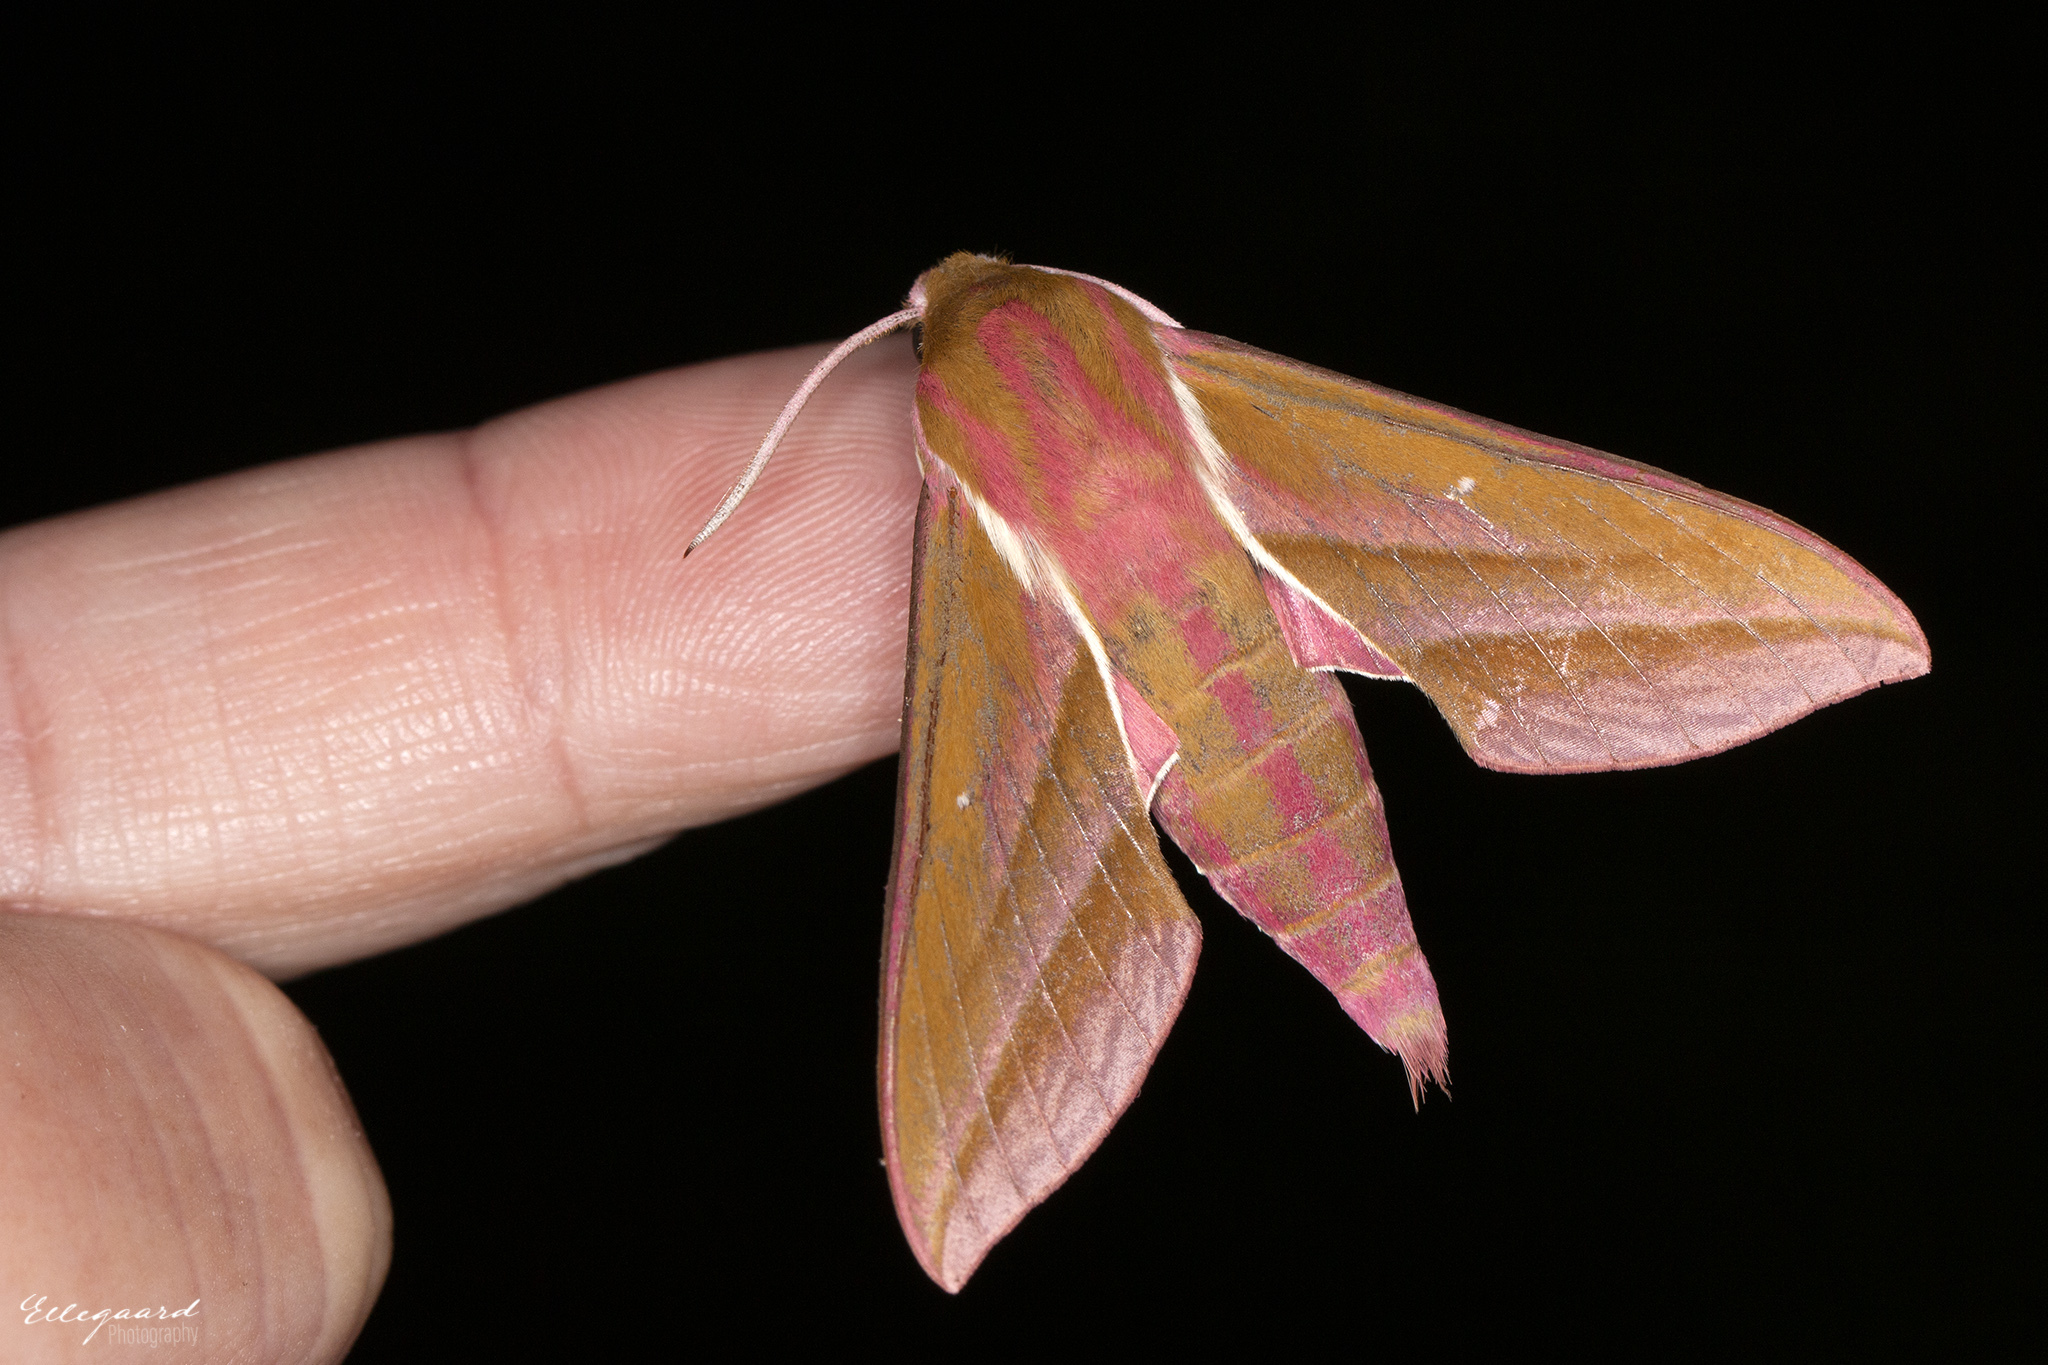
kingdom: Animalia
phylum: Arthropoda
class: Insecta
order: Lepidoptera
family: Sphingidae
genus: Deilephila
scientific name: Deilephila elpenor
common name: Elephant hawk-moth
